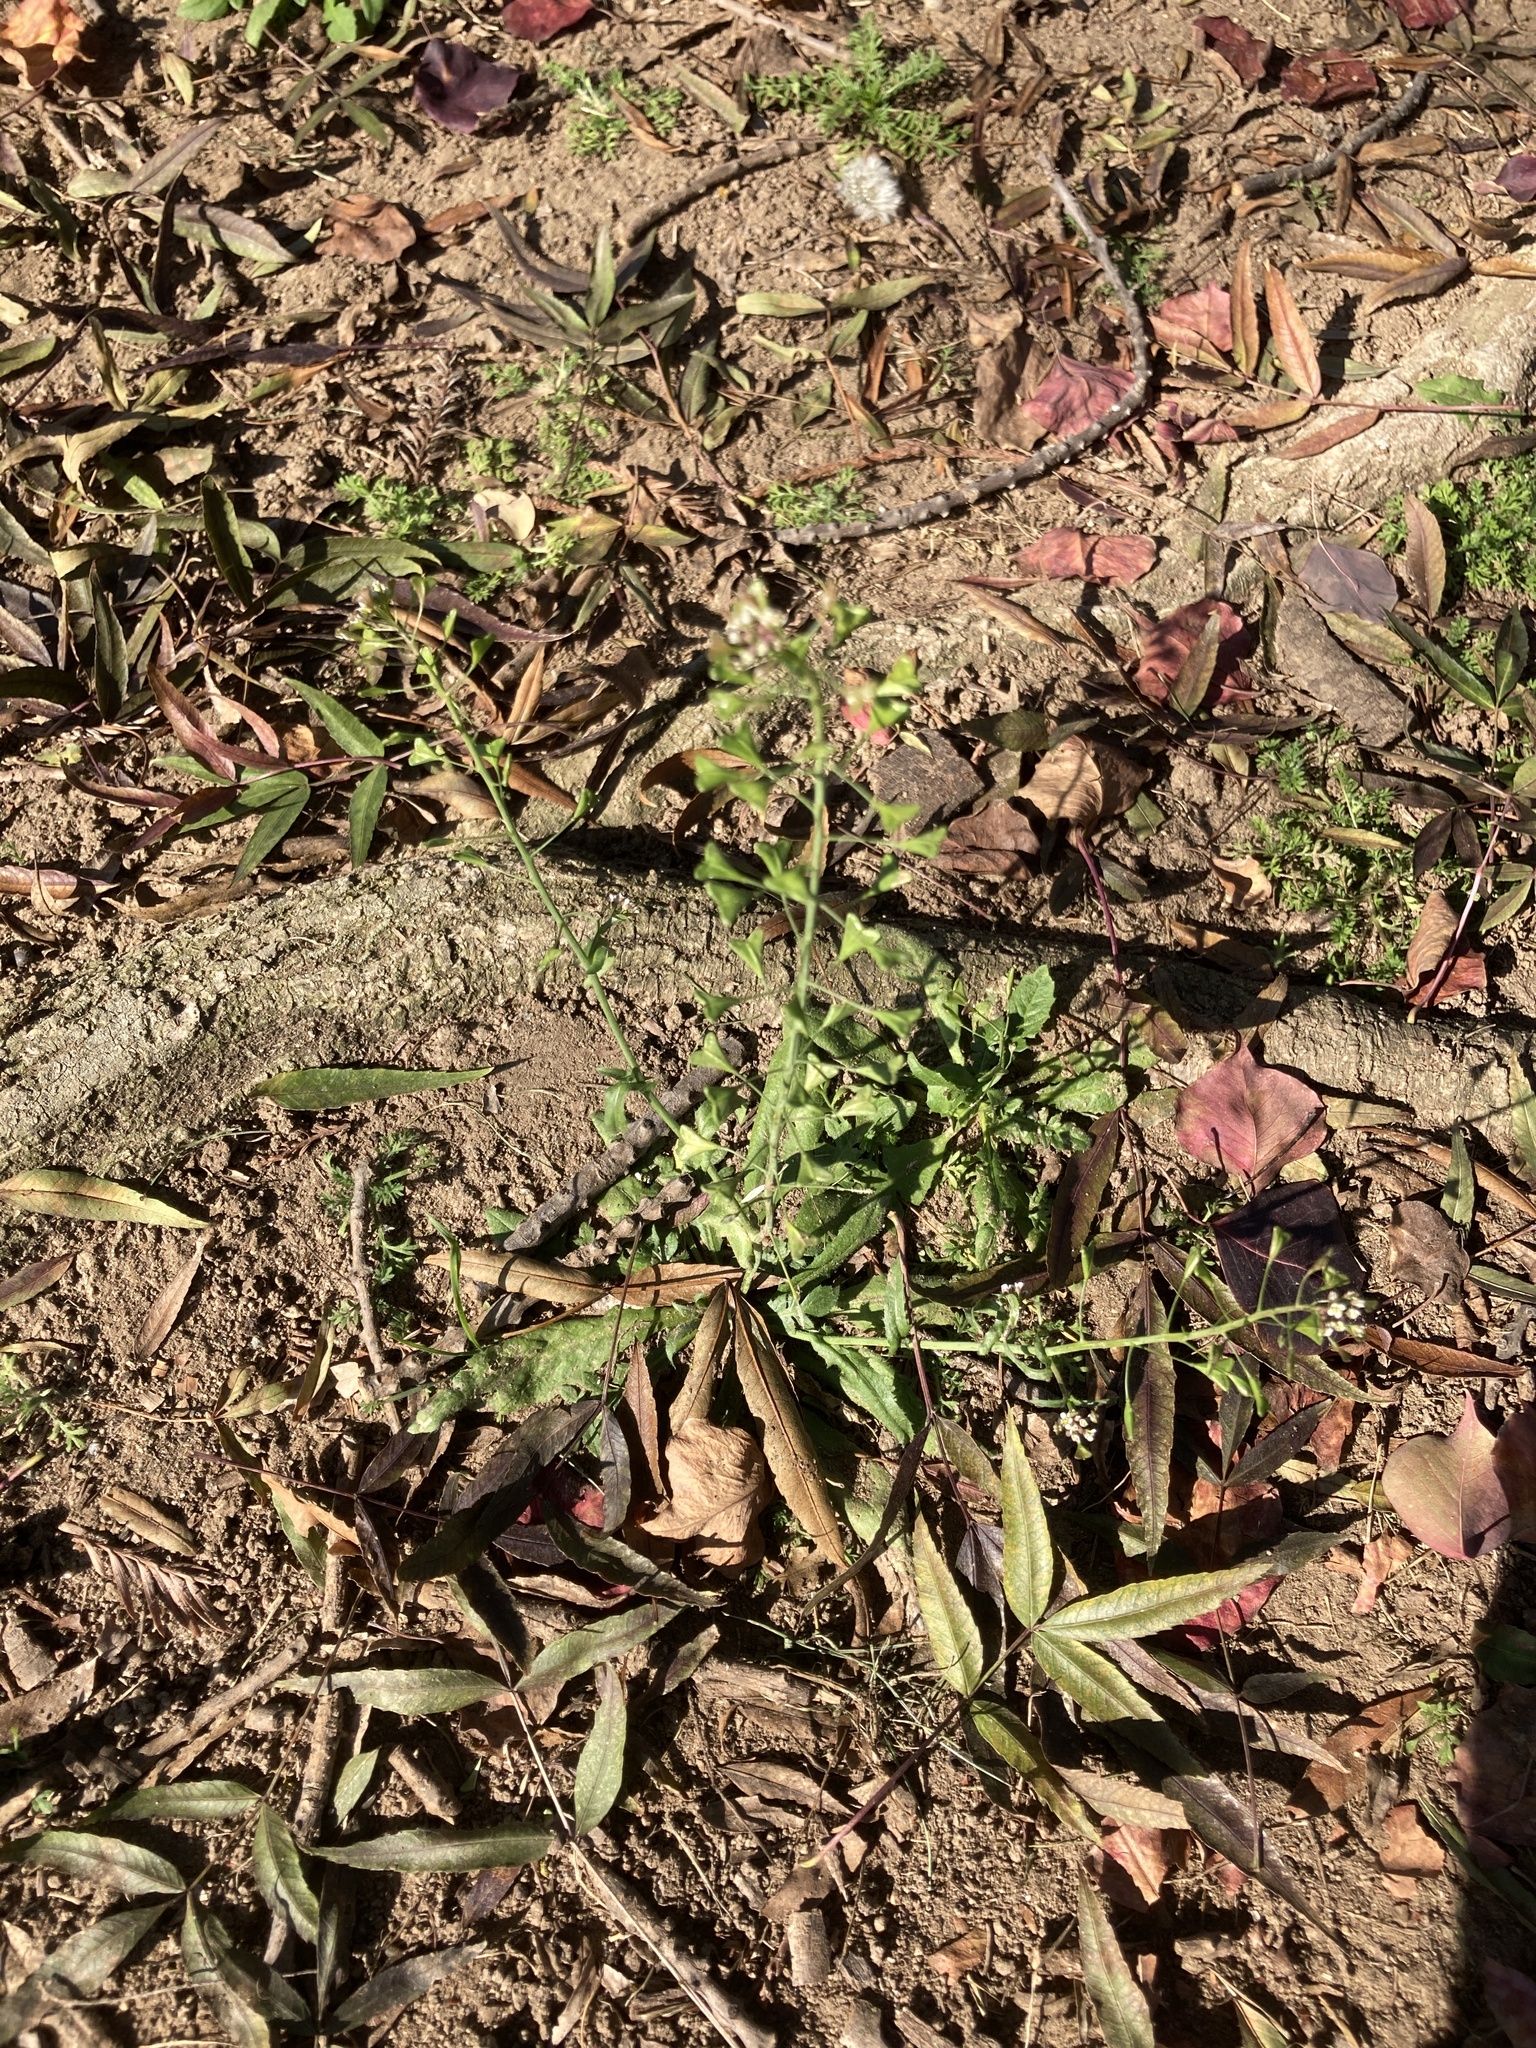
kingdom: Plantae
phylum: Tracheophyta
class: Magnoliopsida
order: Brassicales
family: Brassicaceae
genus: Capsella
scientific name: Capsella bursa-pastoris
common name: Shepherd's purse
